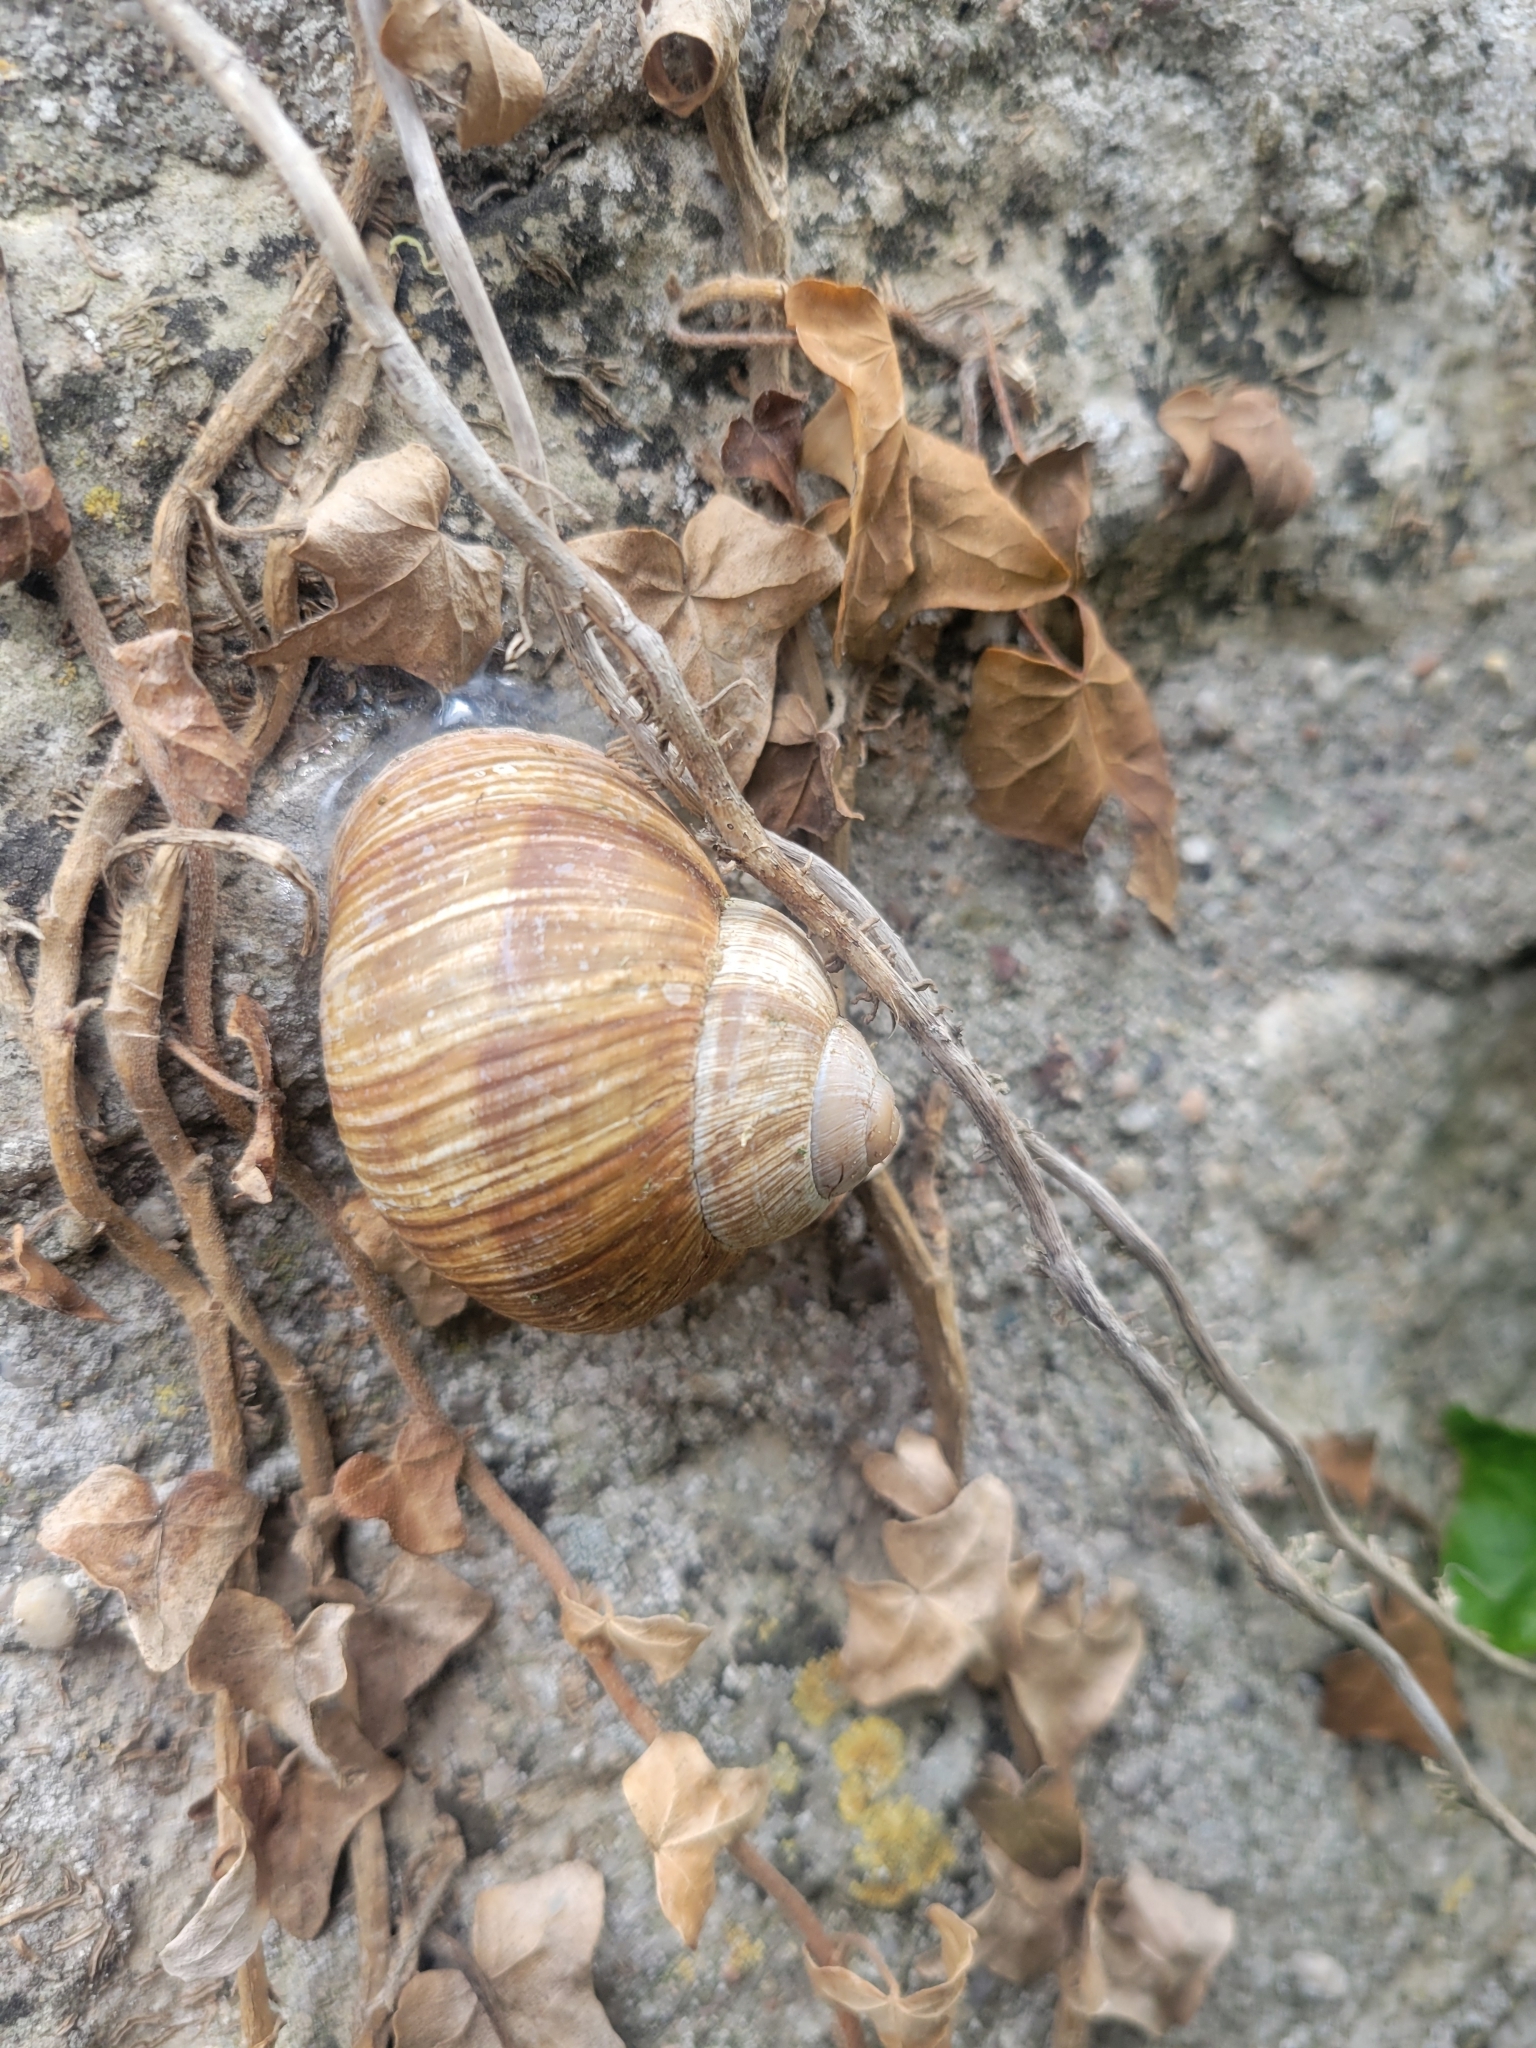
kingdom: Animalia
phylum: Mollusca
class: Gastropoda
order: Stylommatophora
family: Helicidae
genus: Helix
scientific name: Helix pomatia
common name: Roman snail
